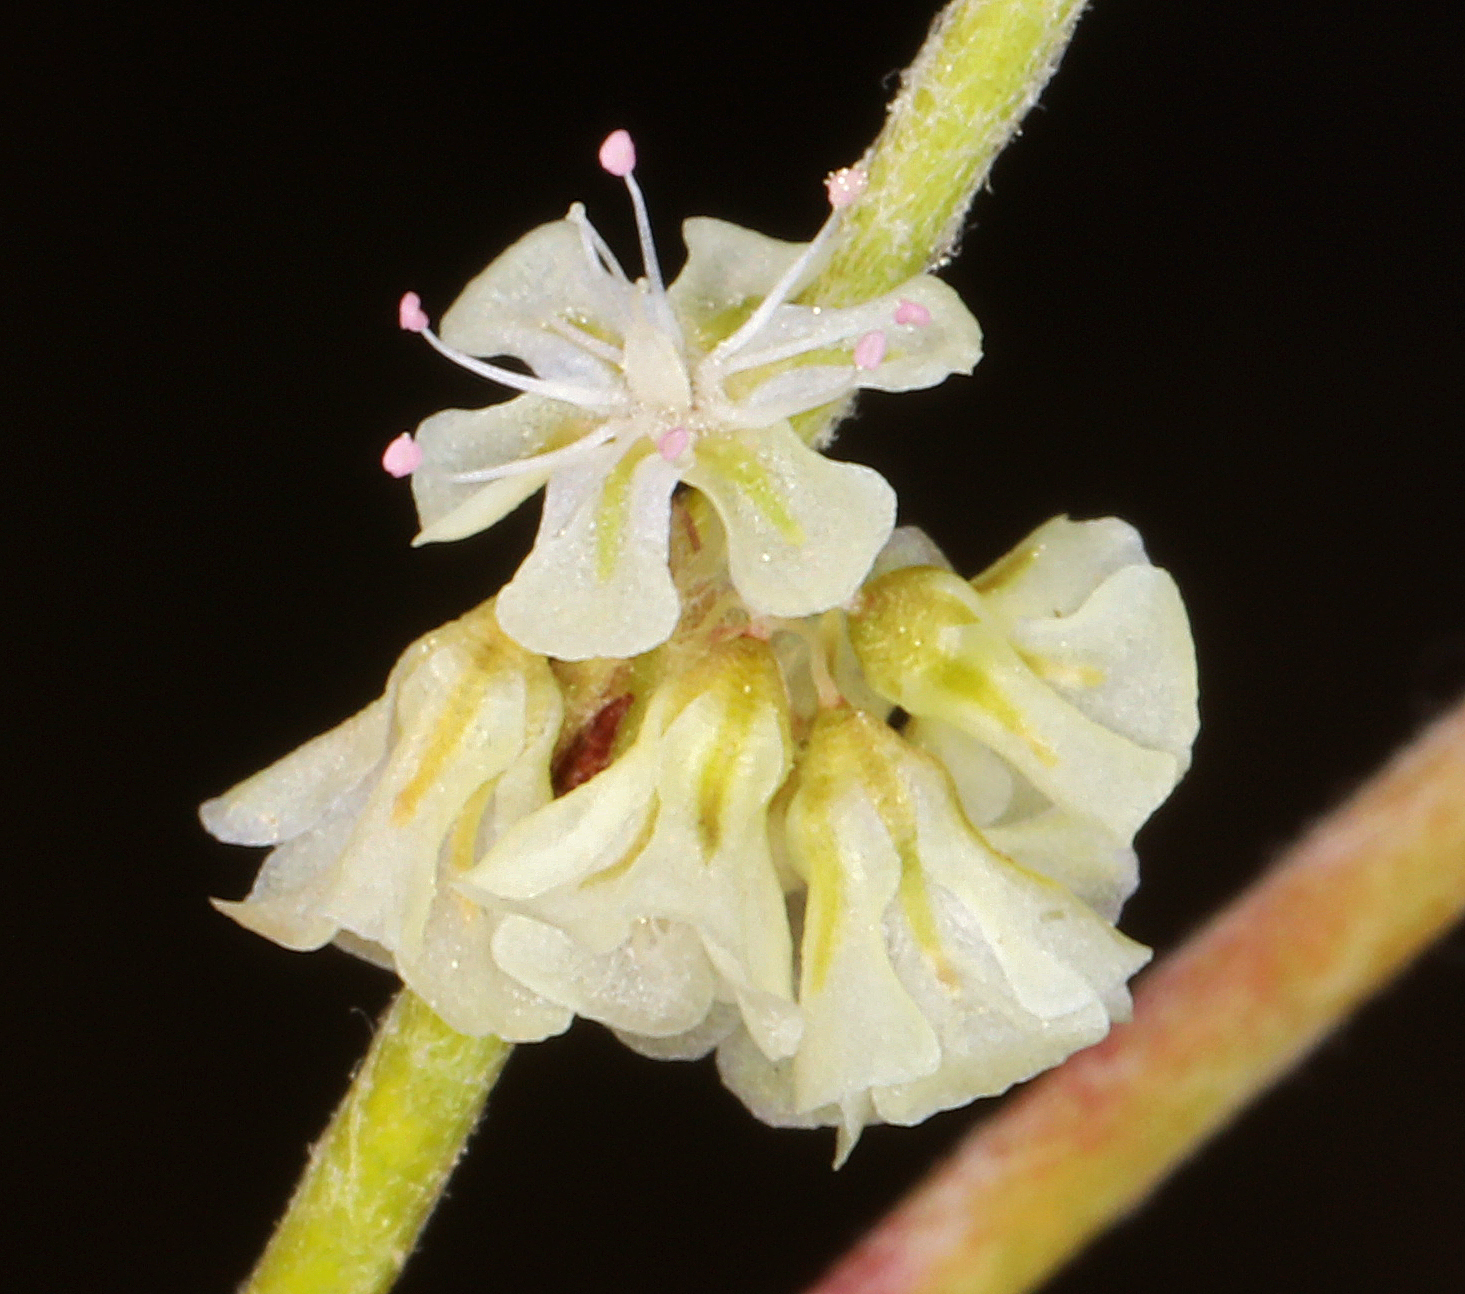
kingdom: Plantae
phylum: Tracheophyta
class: Magnoliopsida
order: Caryophyllales
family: Polygonaceae
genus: Eriogonum
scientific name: Eriogonum palmerianum
